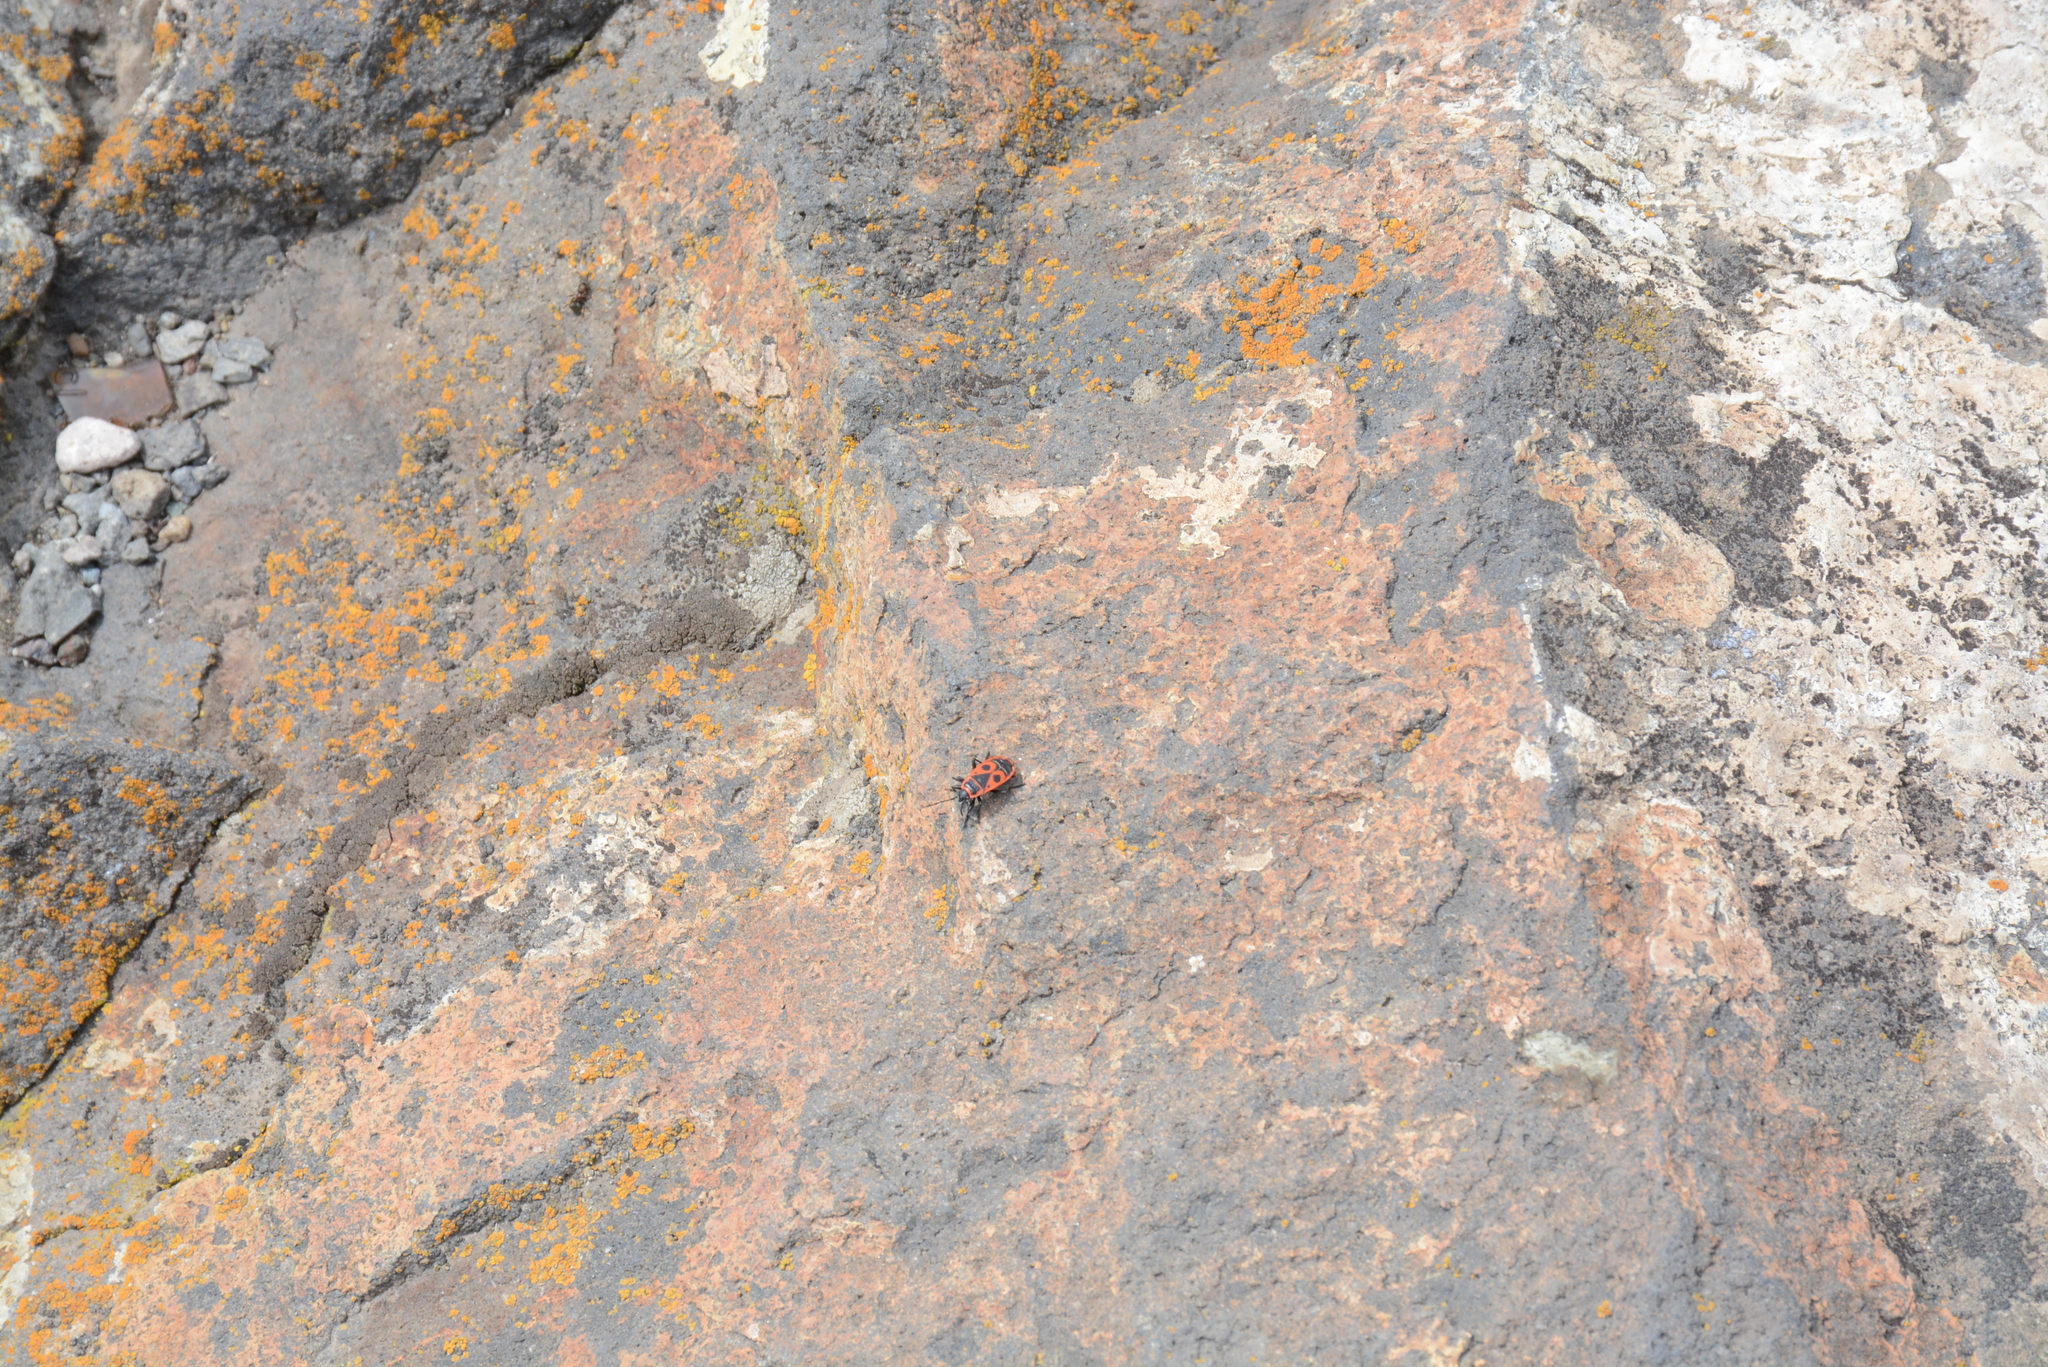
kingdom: Animalia
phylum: Arthropoda
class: Insecta
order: Hemiptera
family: Pyrrhocoridae
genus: Pyrrhocoris
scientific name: Pyrrhocoris apterus
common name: Firebug
